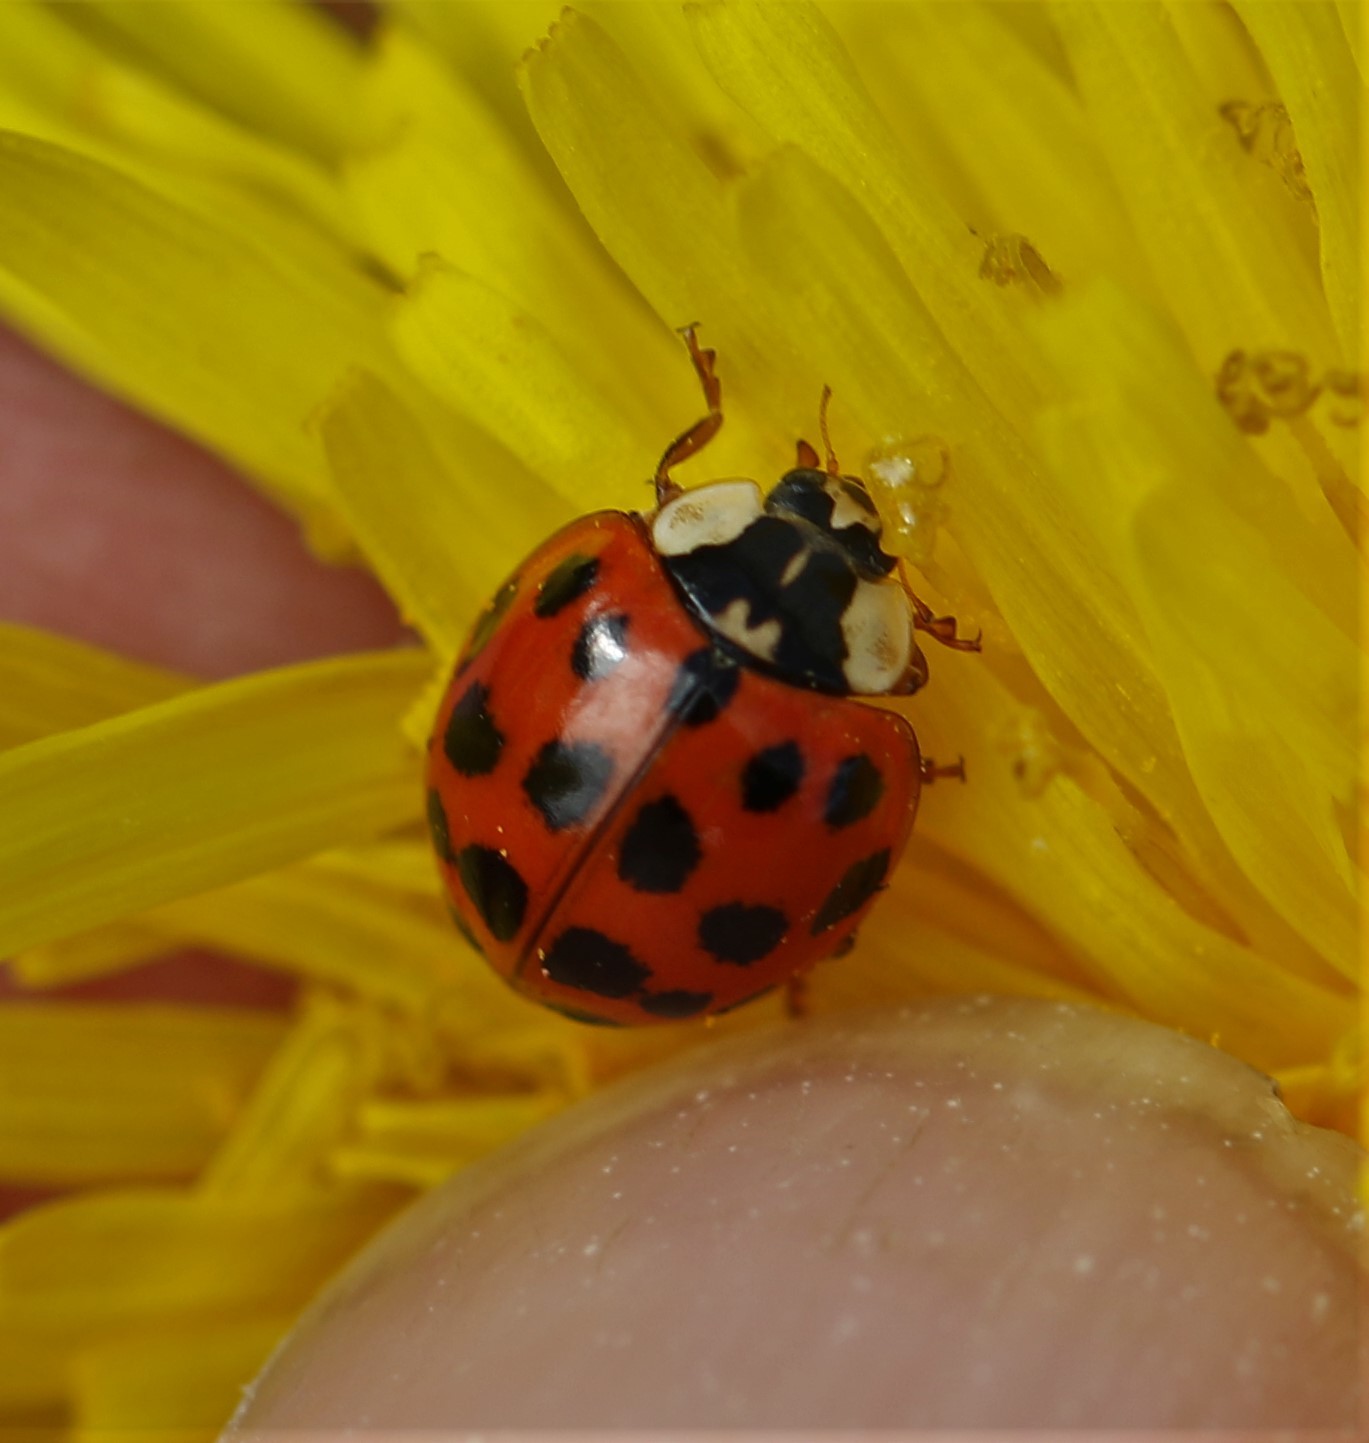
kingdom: Animalia
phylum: Arthropoda
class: Insecta
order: Coleoptera
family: Coccinellidae
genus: Harmonia
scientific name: Harmonia axyridis
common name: Harlequin ladybird
